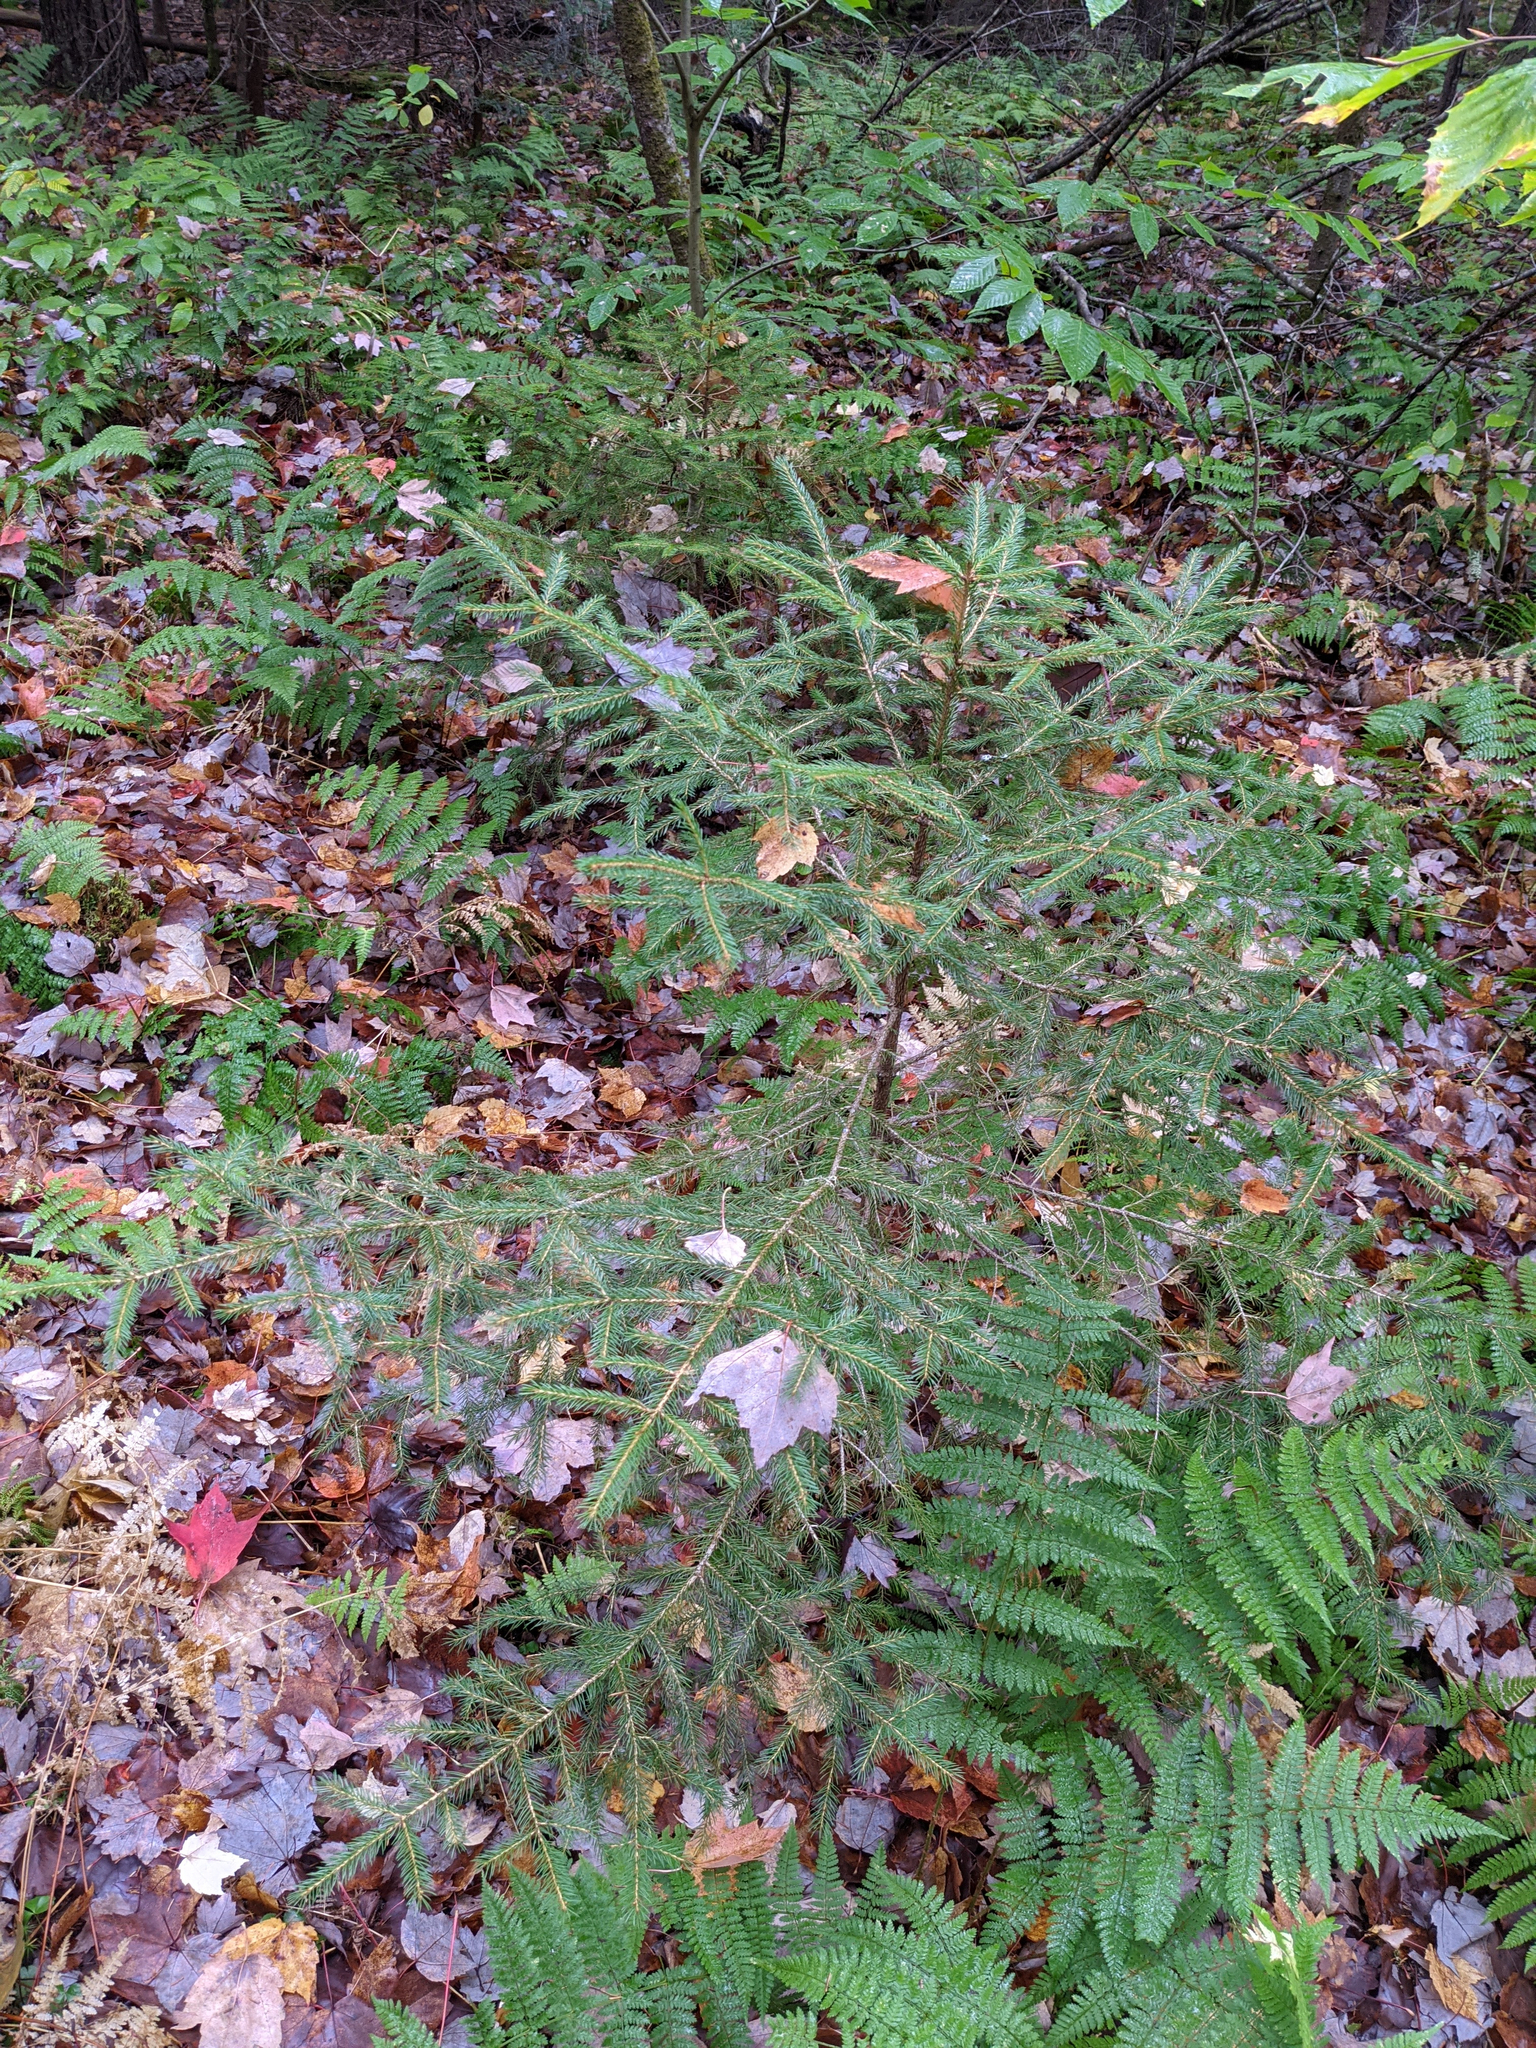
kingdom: Plantae
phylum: Tracheophyta
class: Pinopsida
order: Pinales
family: Pinaceae
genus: Picea
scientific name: Picea rubens
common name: Red spruce
